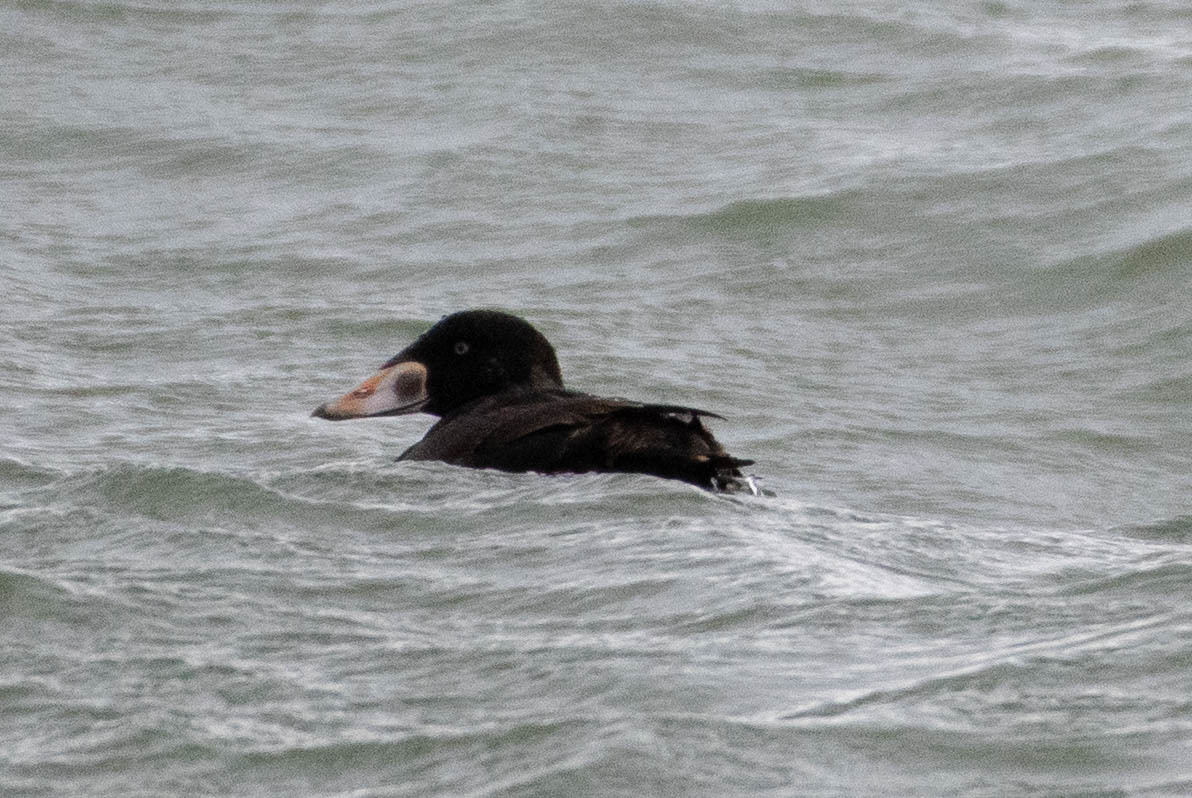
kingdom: Animalia
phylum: Chordata
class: Aves
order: Anseriformes
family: Anatidae
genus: Melanitta
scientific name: Melanitta perspicillata
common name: Surf scoter
